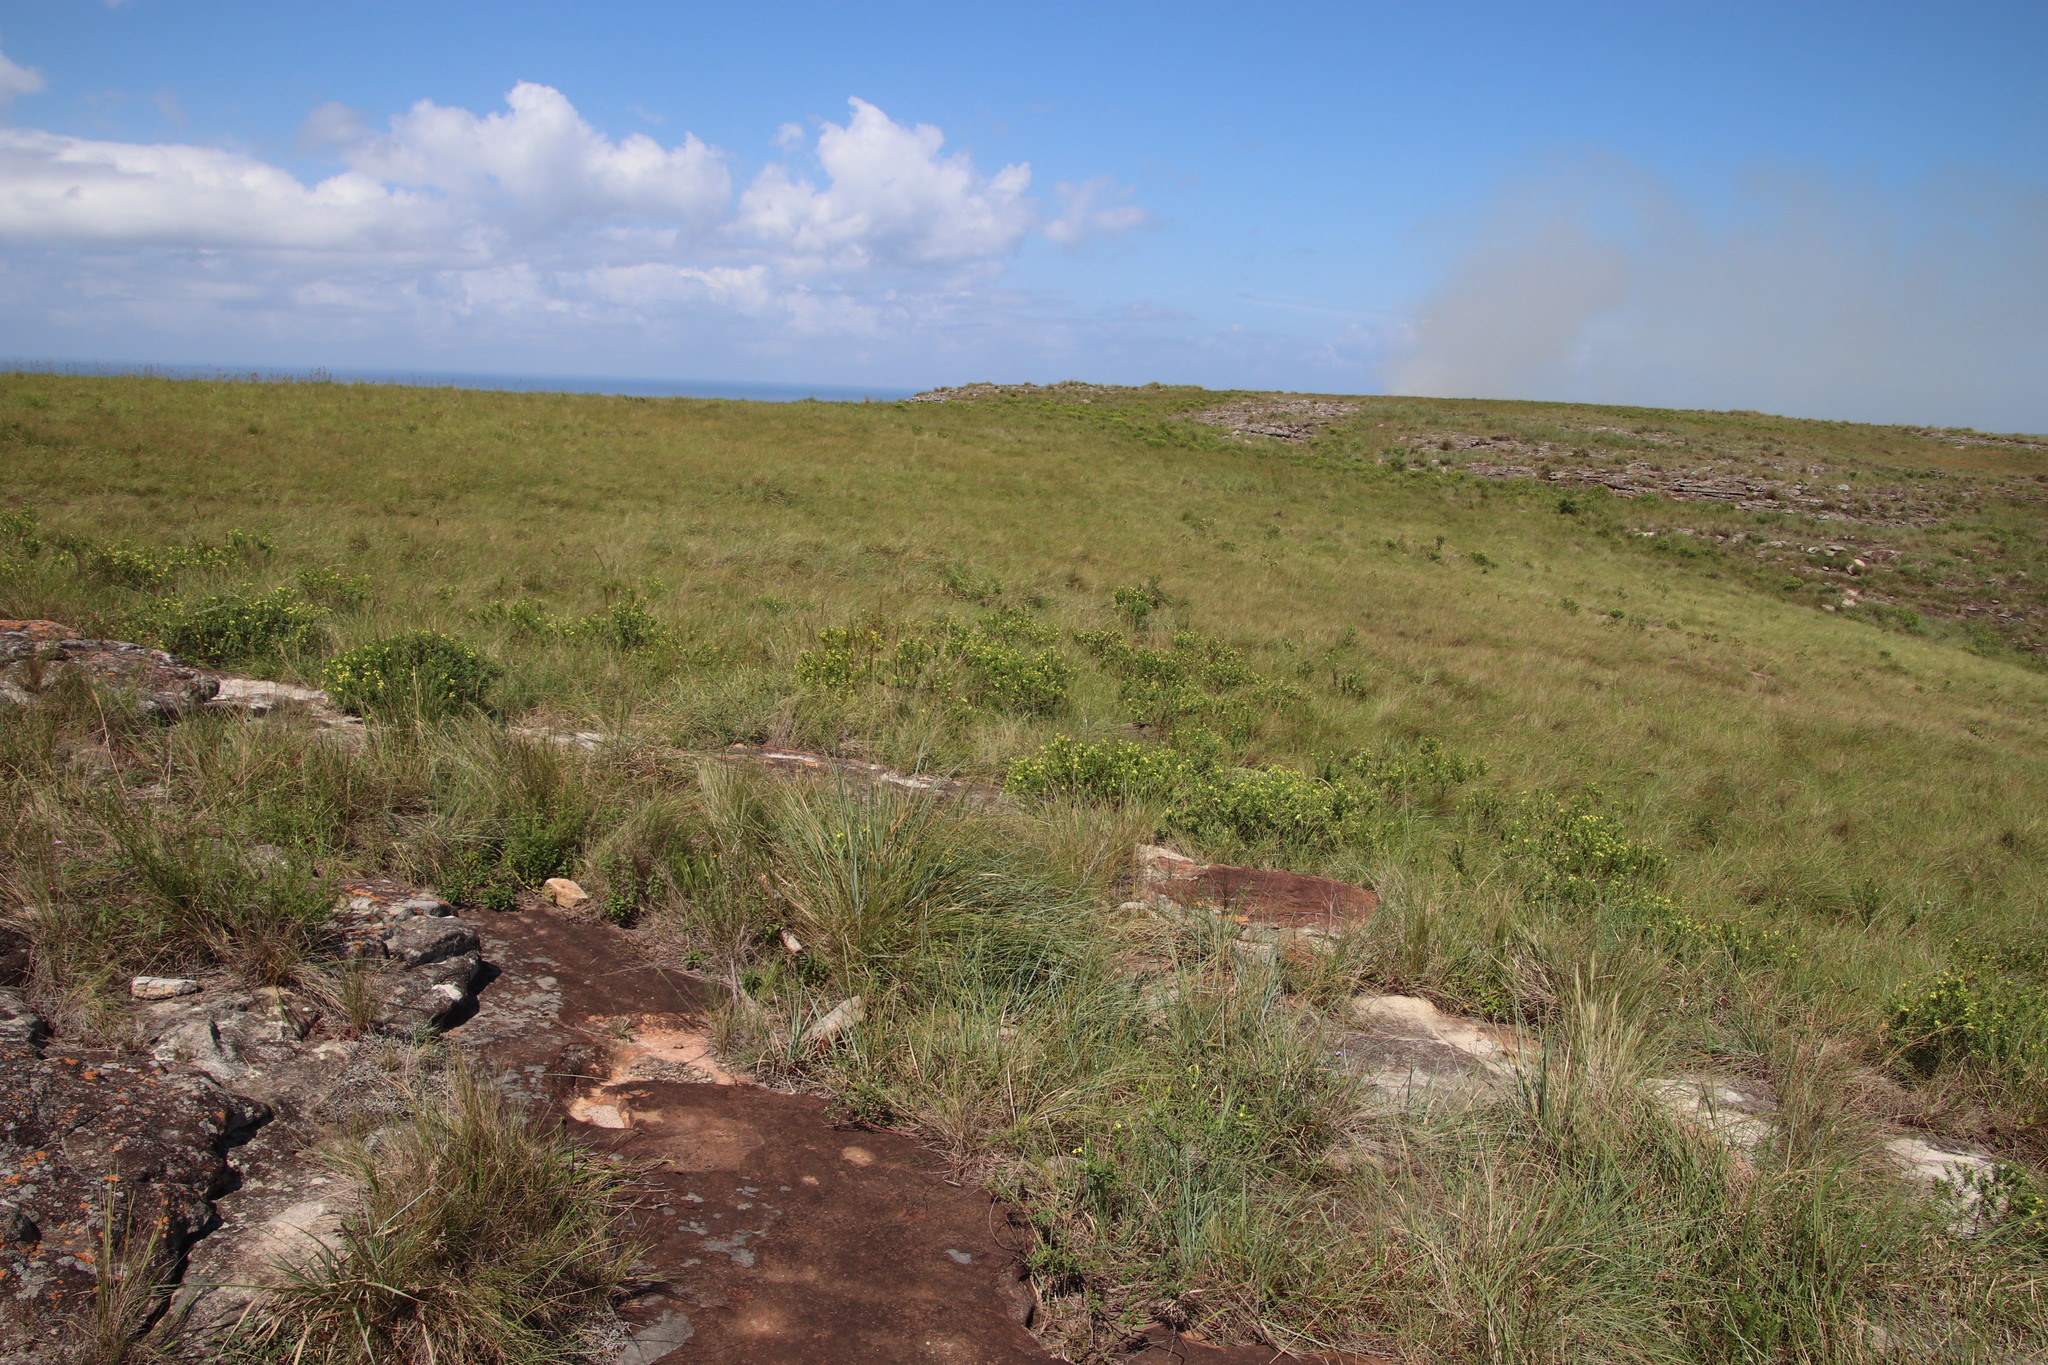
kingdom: Plantae
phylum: Tracheophyta
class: Magnoliopsida
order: Proteales
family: Proteaceae
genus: Leucadendron
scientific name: Leucadendron spissifolium
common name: Spear-leaf conebush
